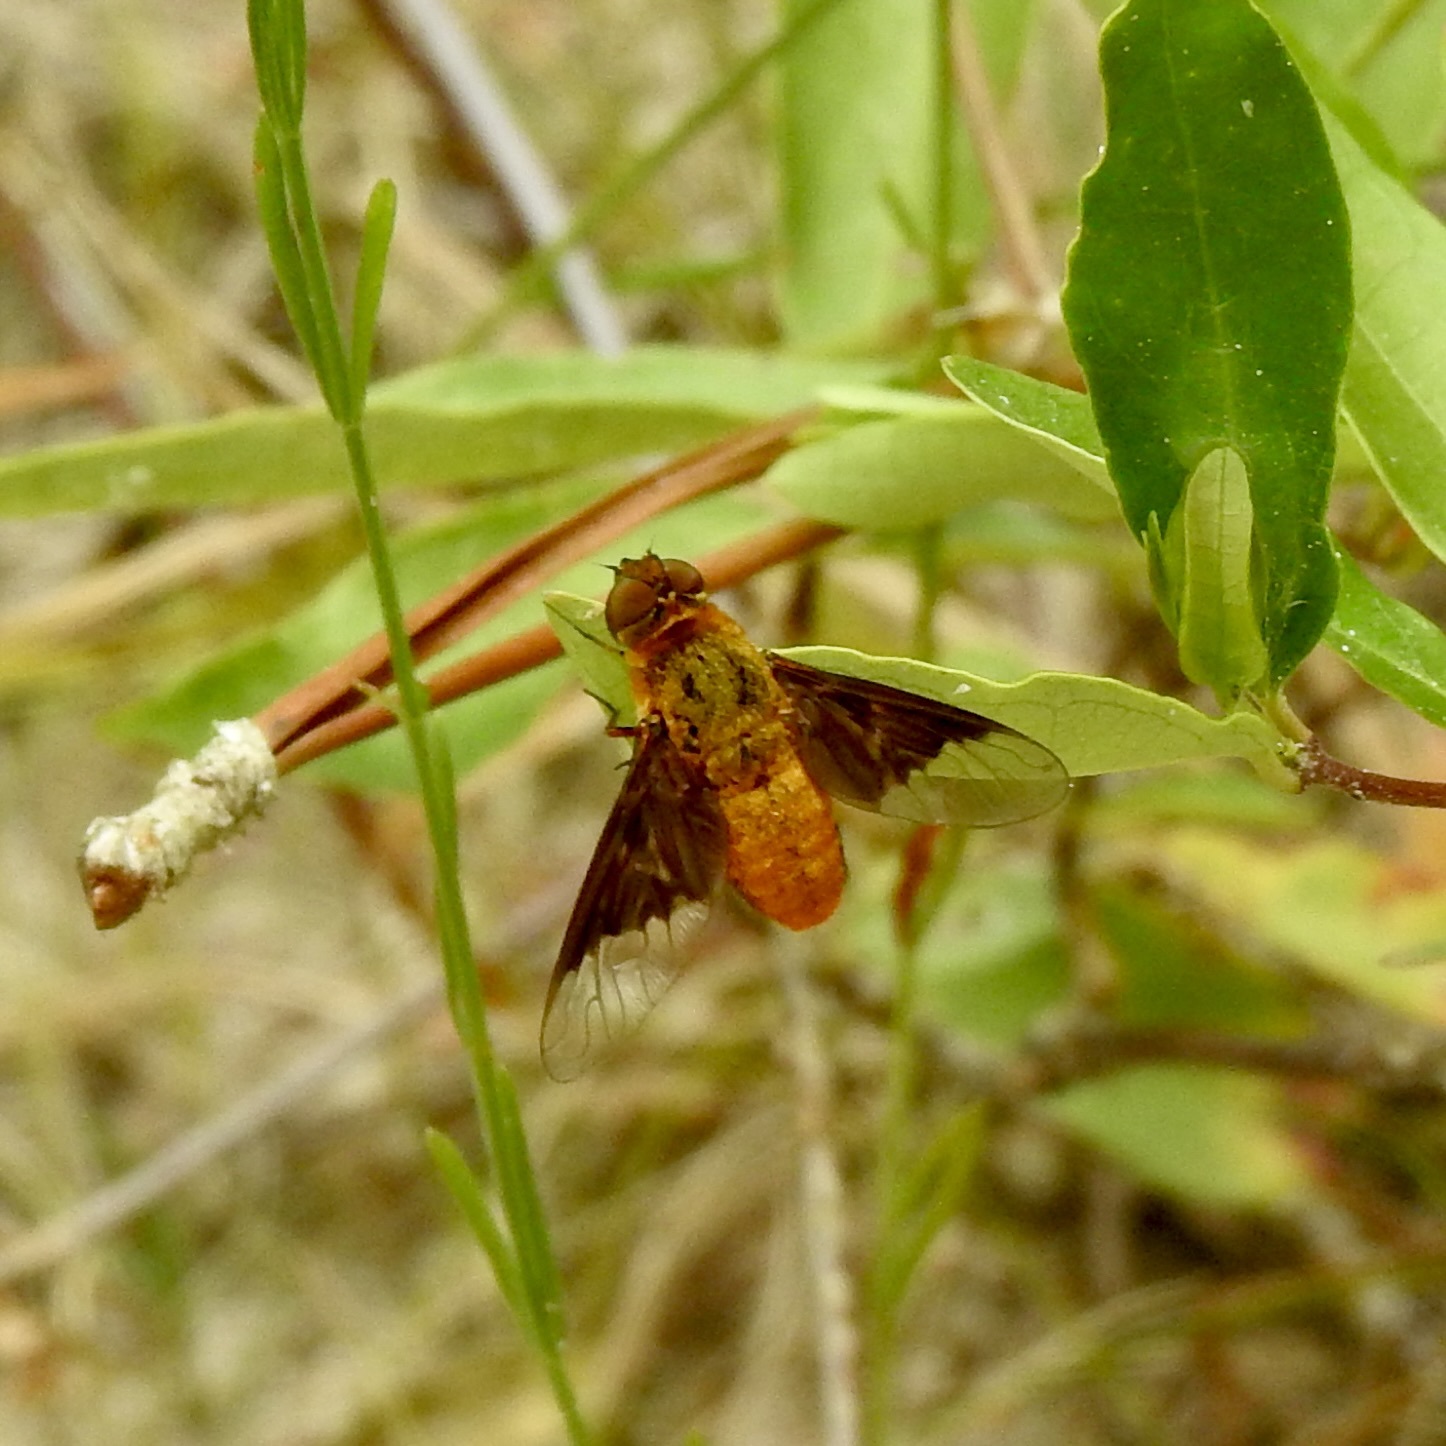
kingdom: Animalia
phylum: Arthropoda
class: Insecta
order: Diptera
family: Bombyliidae
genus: Chrysanthrax
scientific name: Chrysanthrax cypris
